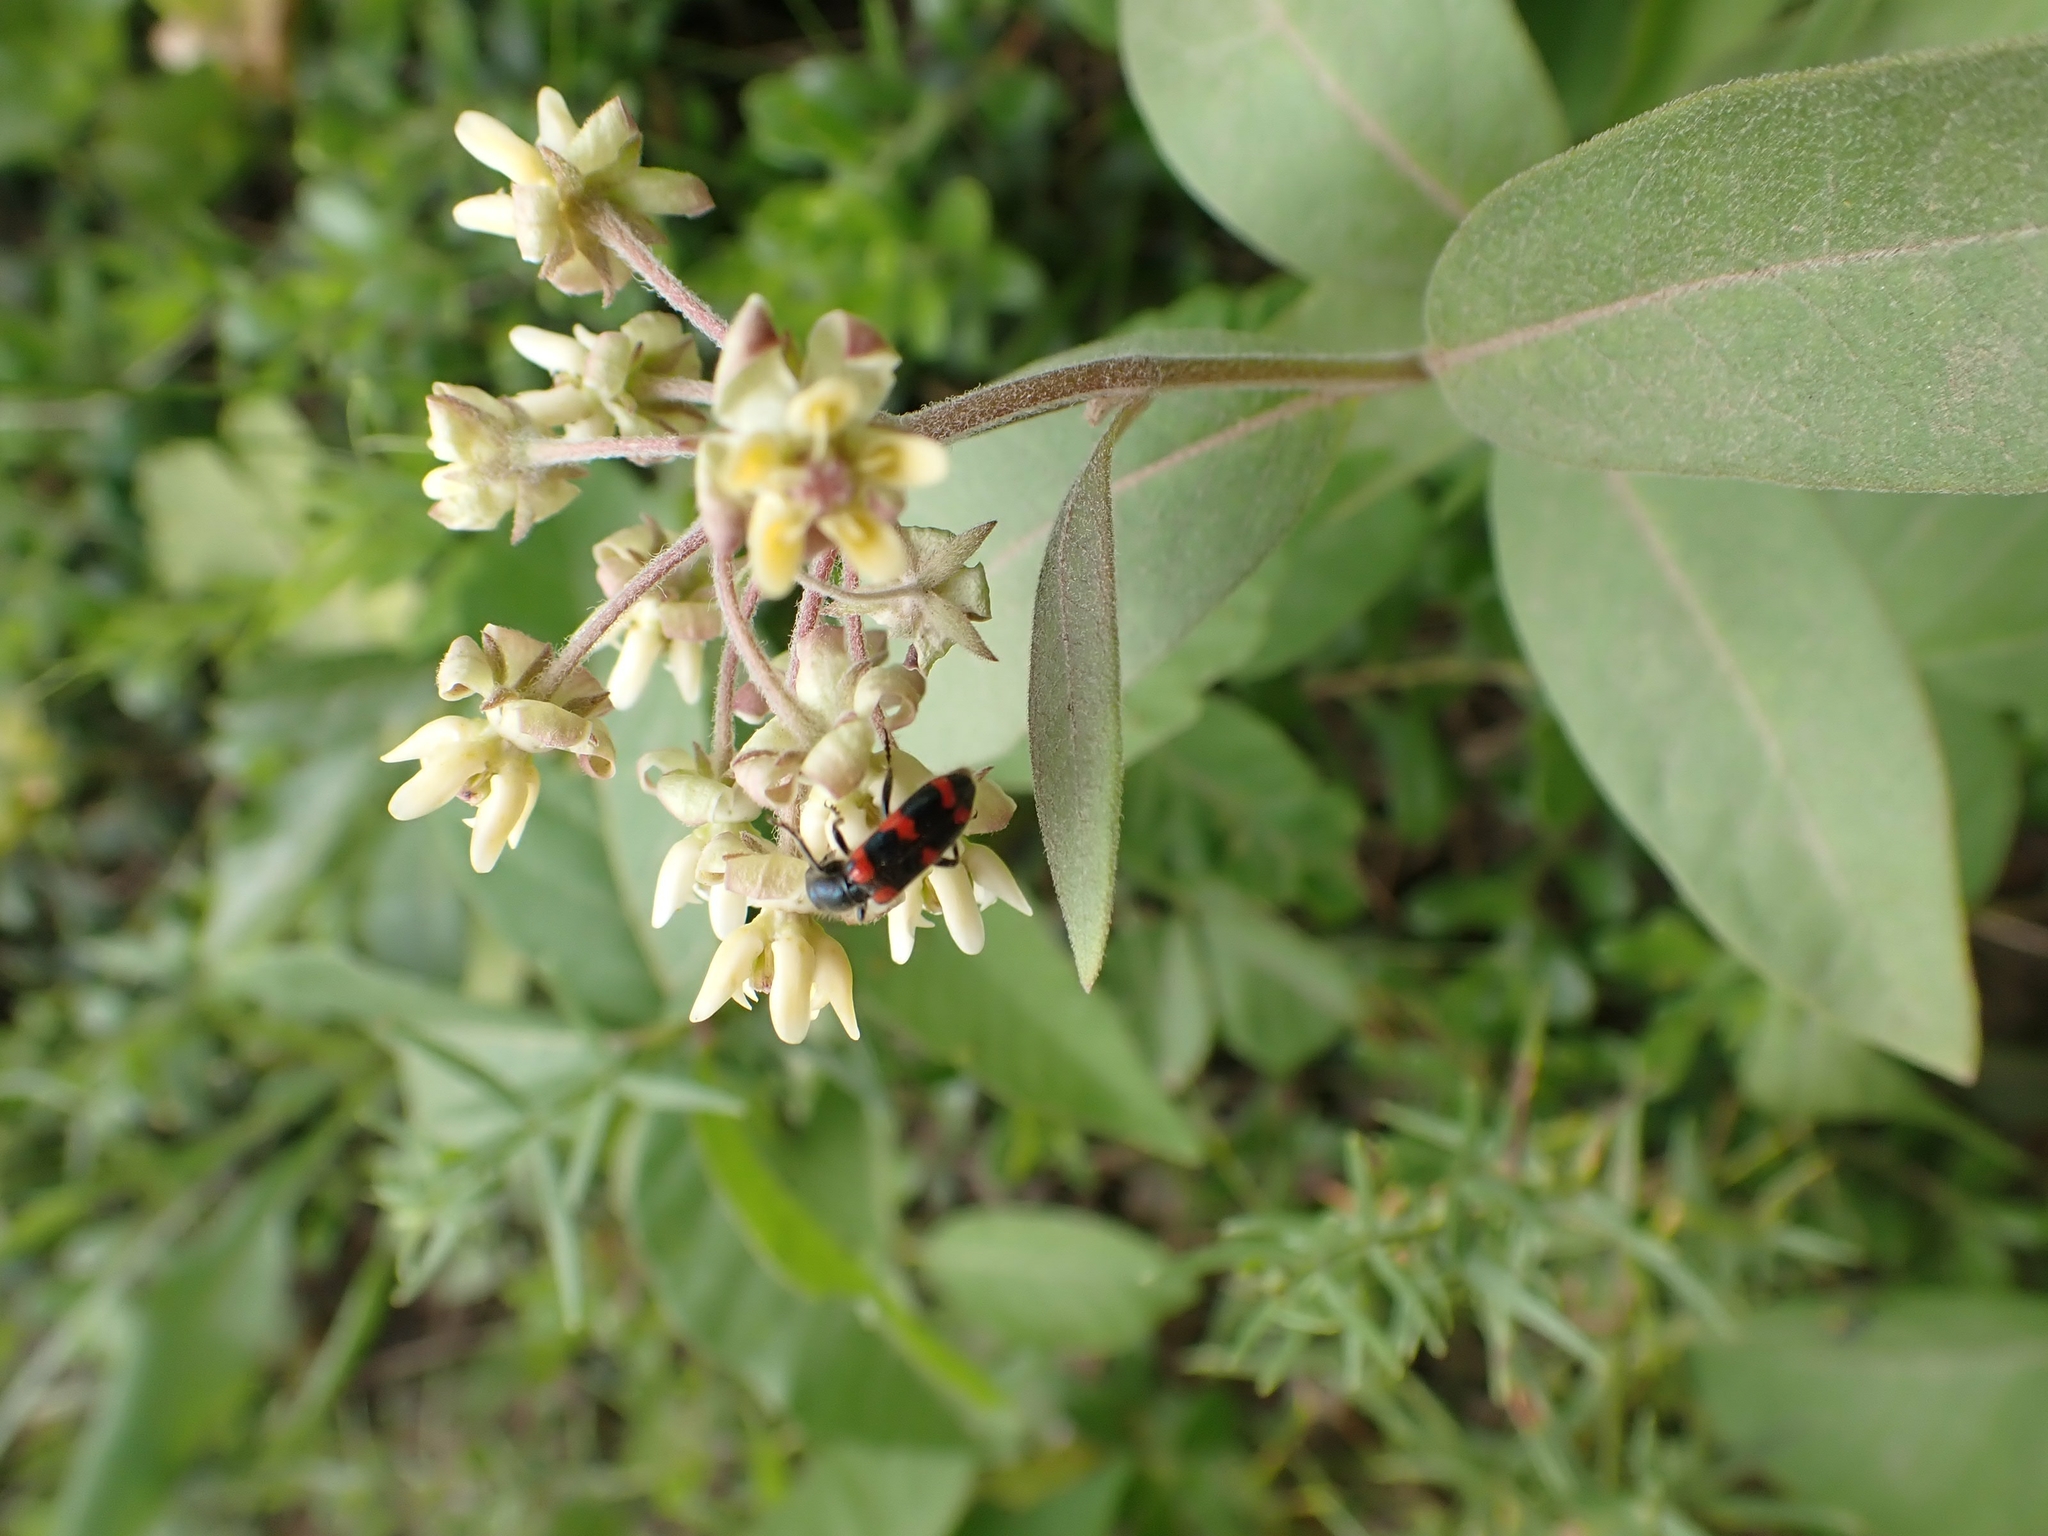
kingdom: Animalia
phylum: Arthropoda
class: Insecta
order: Coleoptera
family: Cleridae
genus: Trichodes
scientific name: Trichodes nutalli
